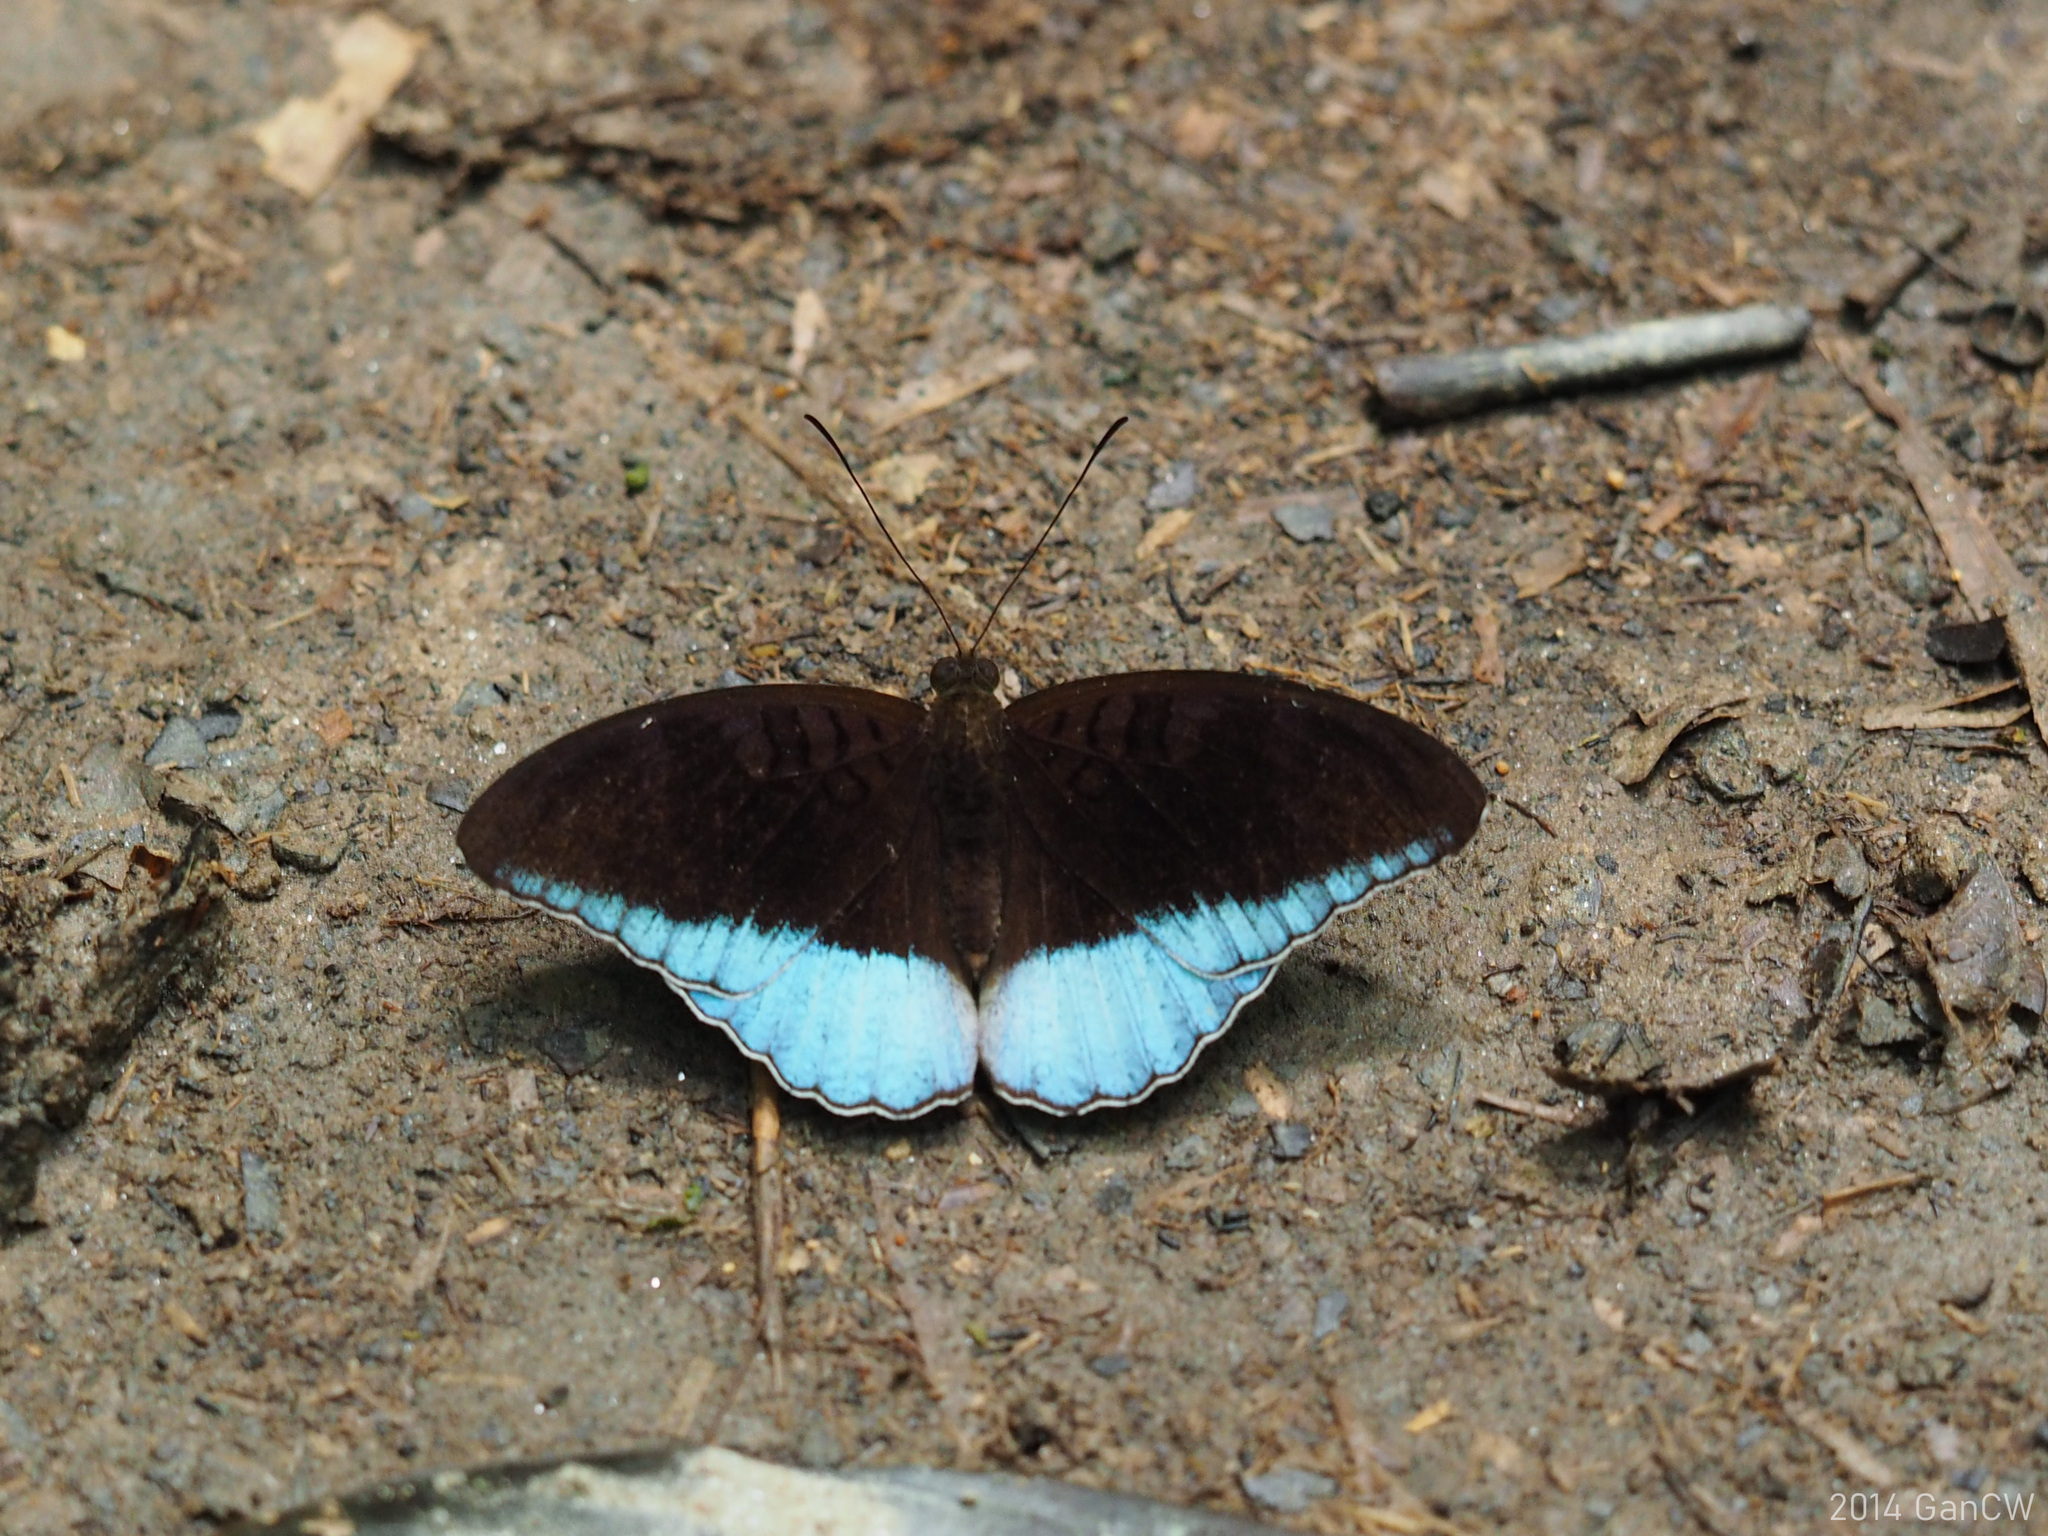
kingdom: Animalia
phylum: Arthropoda
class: Insecta
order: Lepidoptera
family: Nymphalidae
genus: Tanaecia
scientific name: Tanaecia iapis
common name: Horsfield's baron
